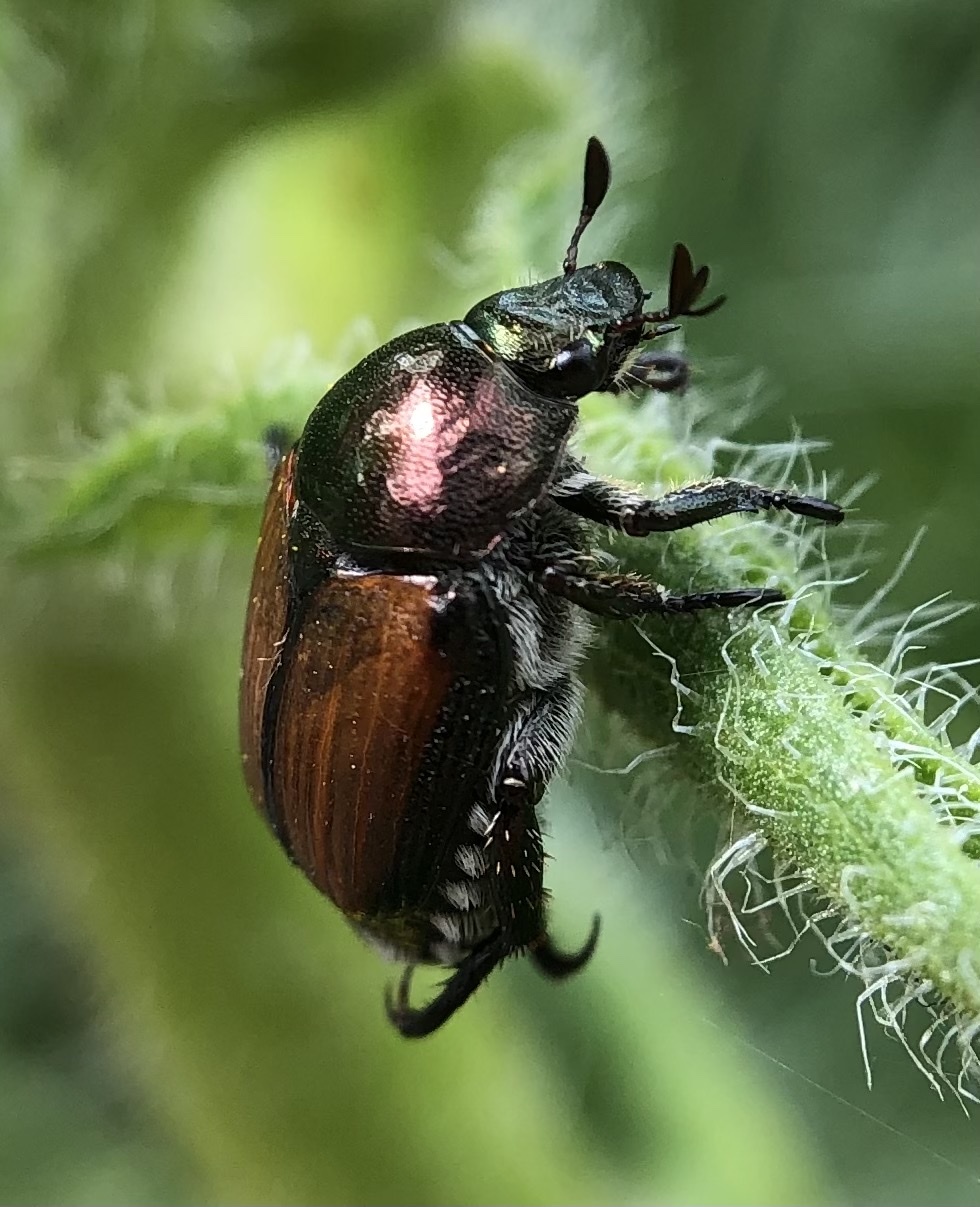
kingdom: Animalia
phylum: Arthropoda
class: Insecta
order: Coleoptera
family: Scarabaeidae
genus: Popillia
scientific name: Popillia japonica
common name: Japanese beetle
